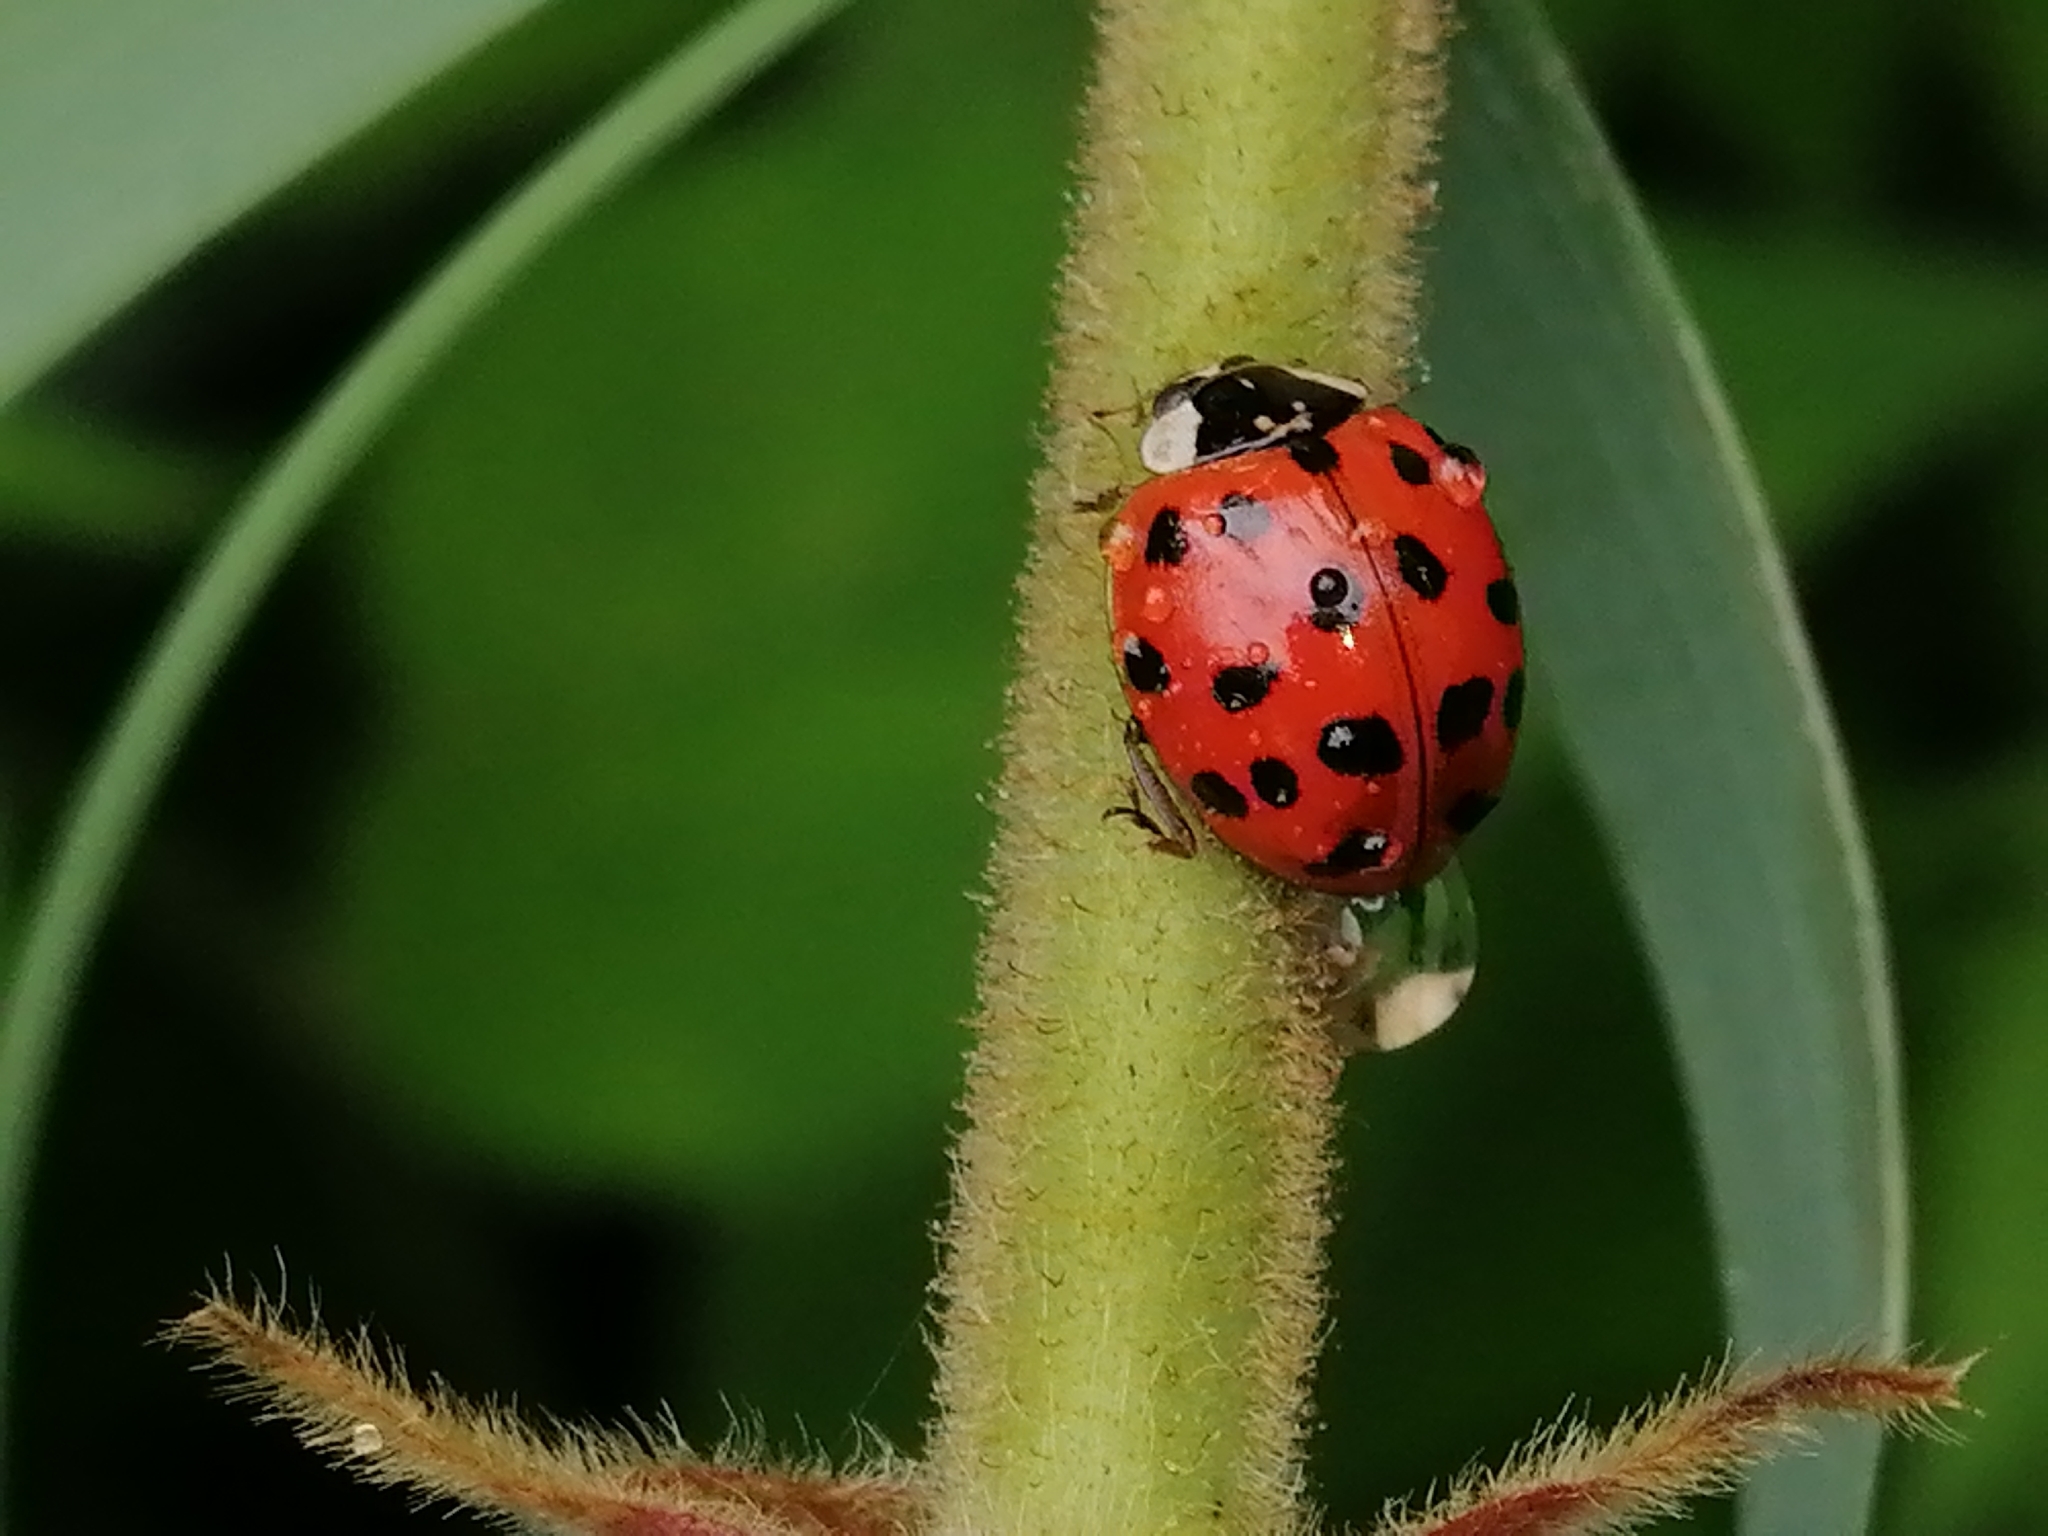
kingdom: Animalia
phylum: Arthropoda
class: Insecta
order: Coleoptera
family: Coccinellidae
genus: Harmonia
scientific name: Harmonia axyridis
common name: Harlequin ladybird
